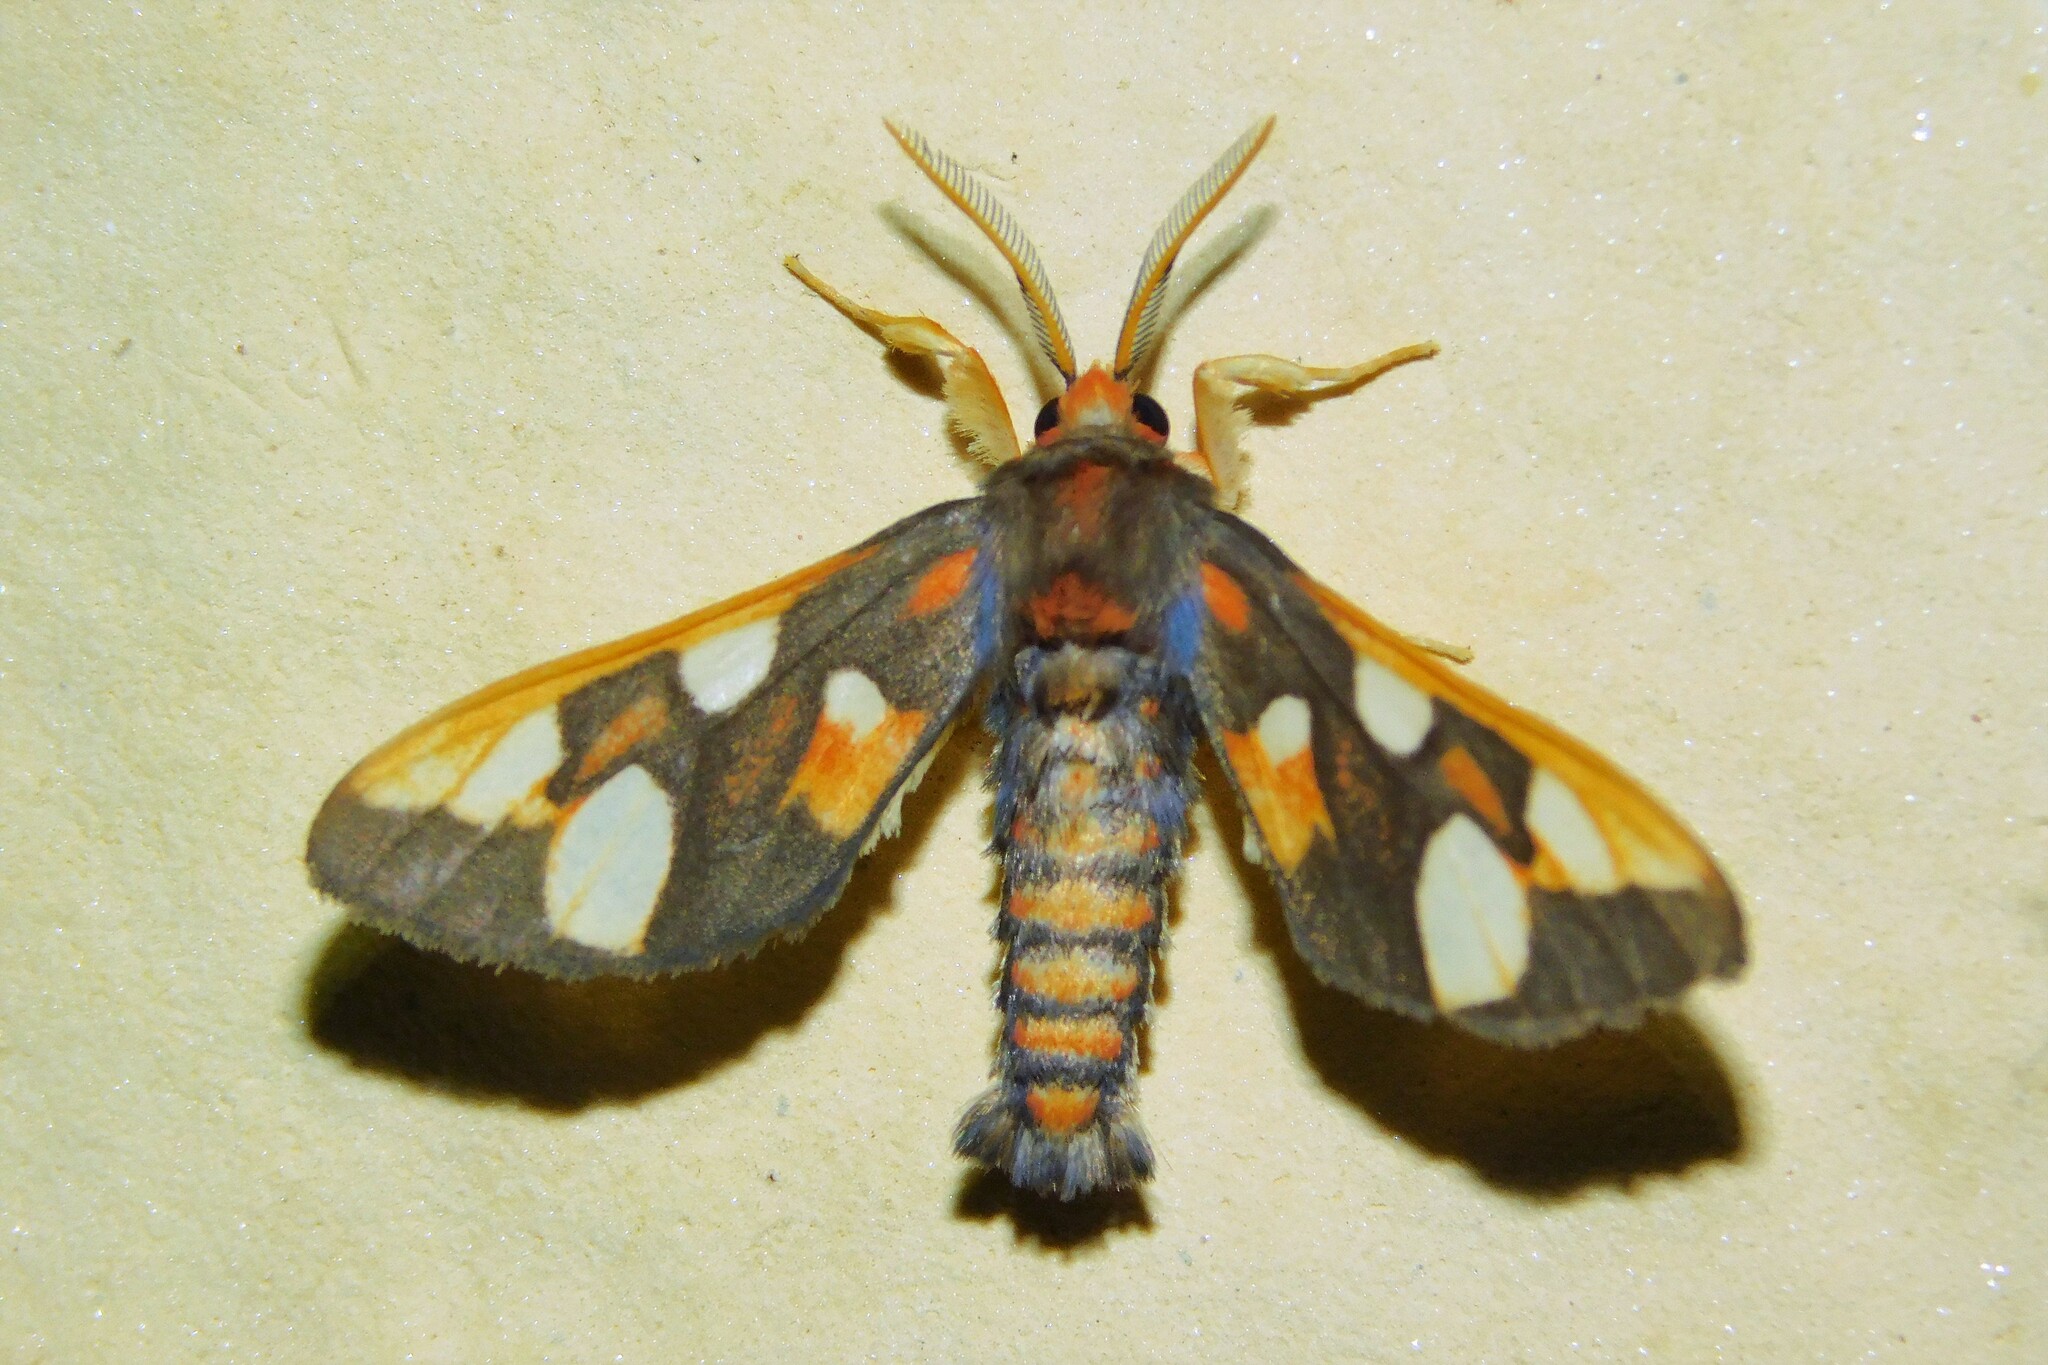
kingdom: Animalia
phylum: Arthropoda
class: Insecta
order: Lepidoptera
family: Erebidae
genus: Anapisa
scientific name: Anapisa histrio
